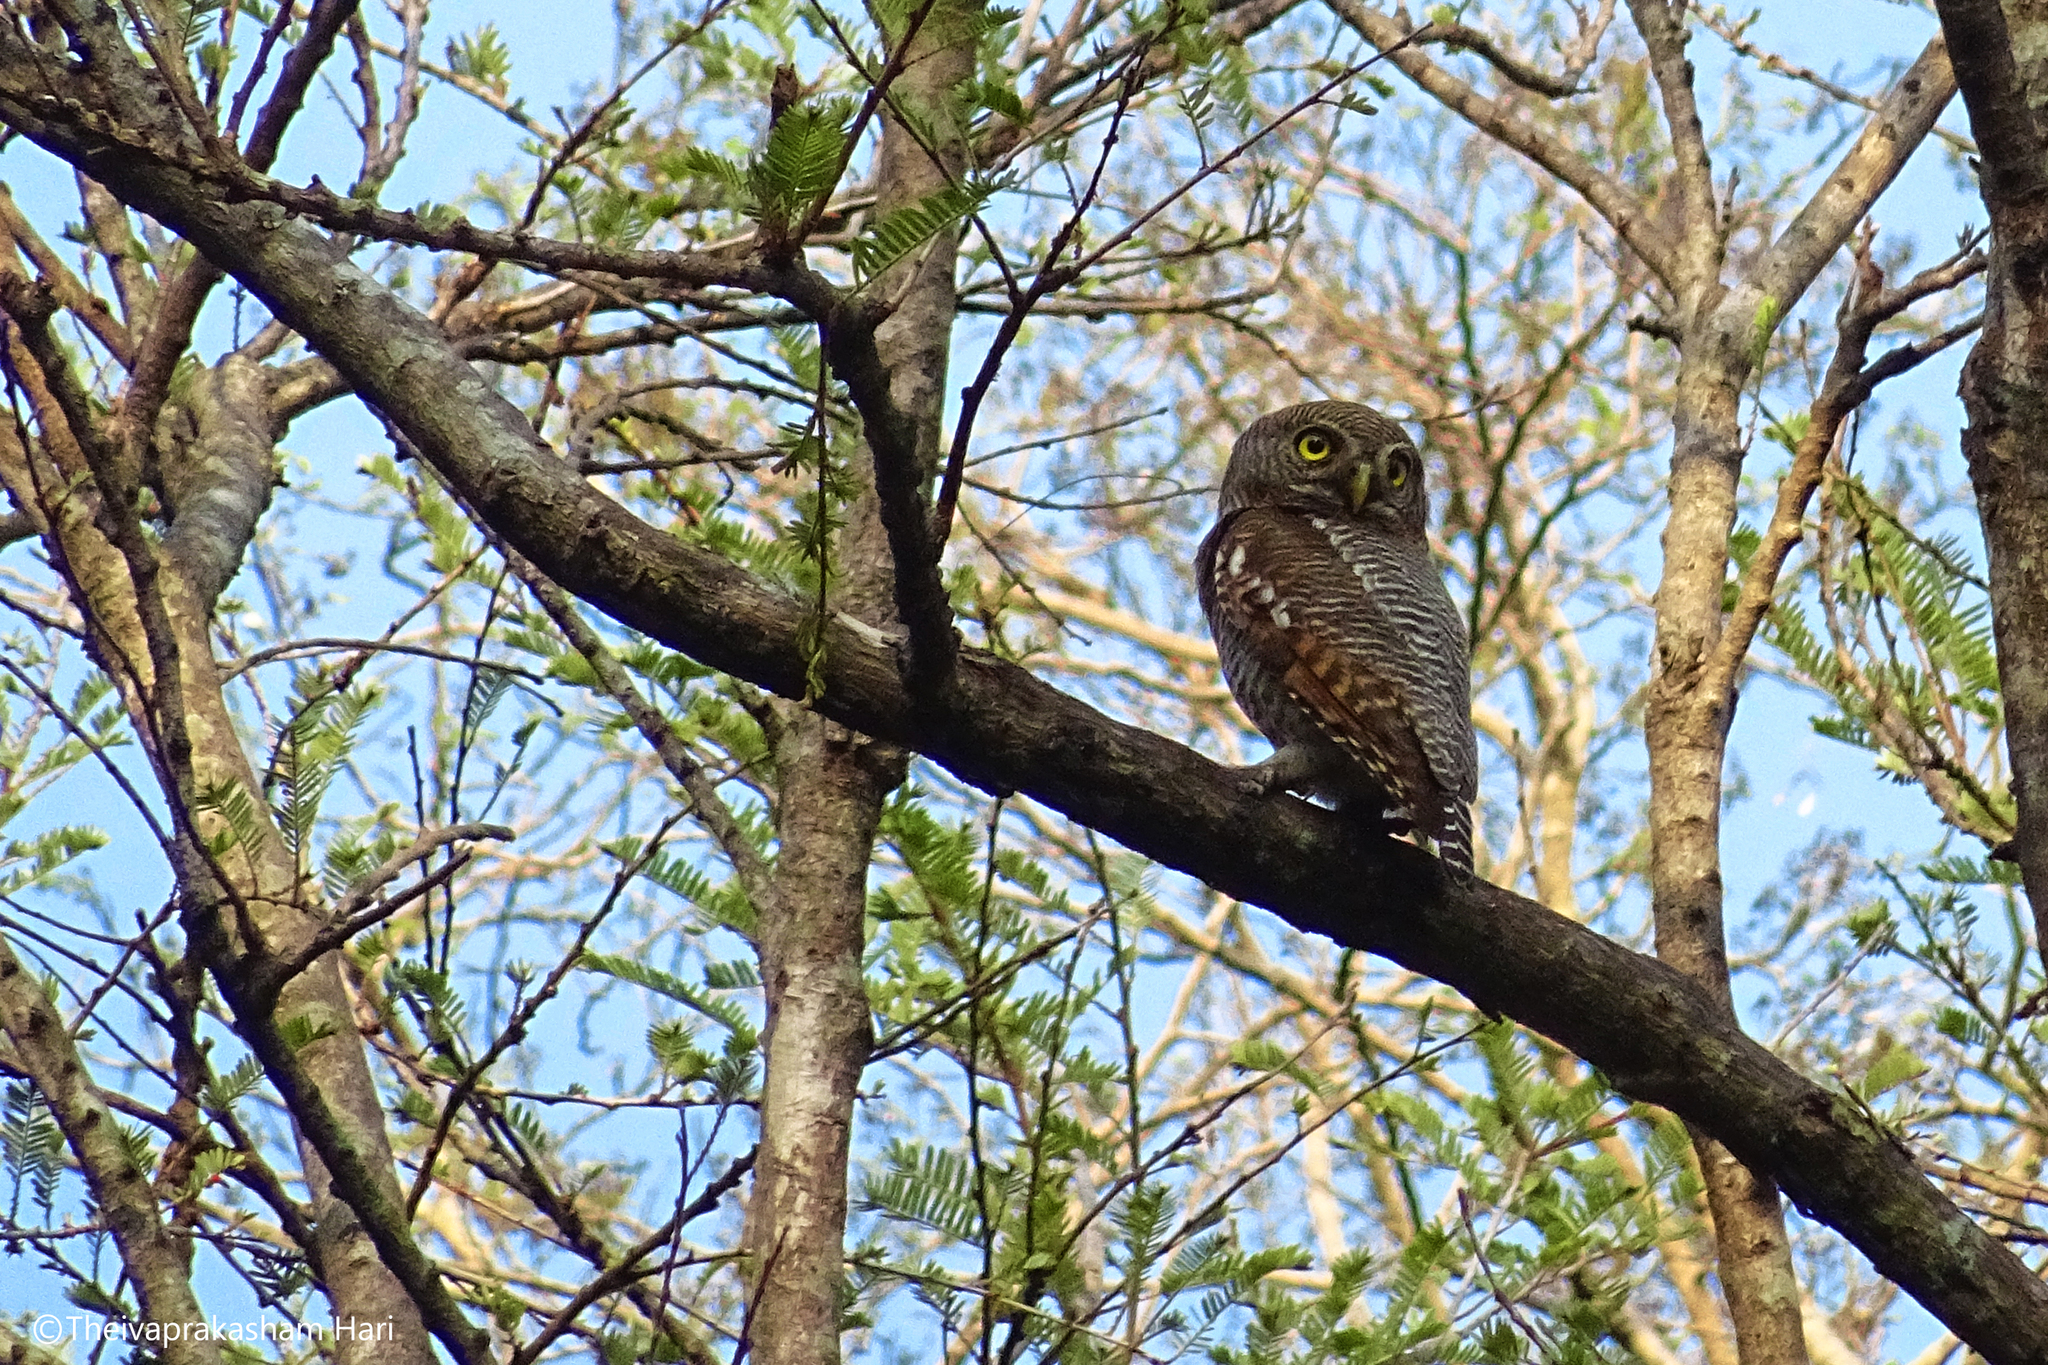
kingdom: Animalia
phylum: Chordata
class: Aves
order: Strigiformes
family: Strigidae
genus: Glaucidium
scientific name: Glaucidium radiatum
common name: Jungle owlet
